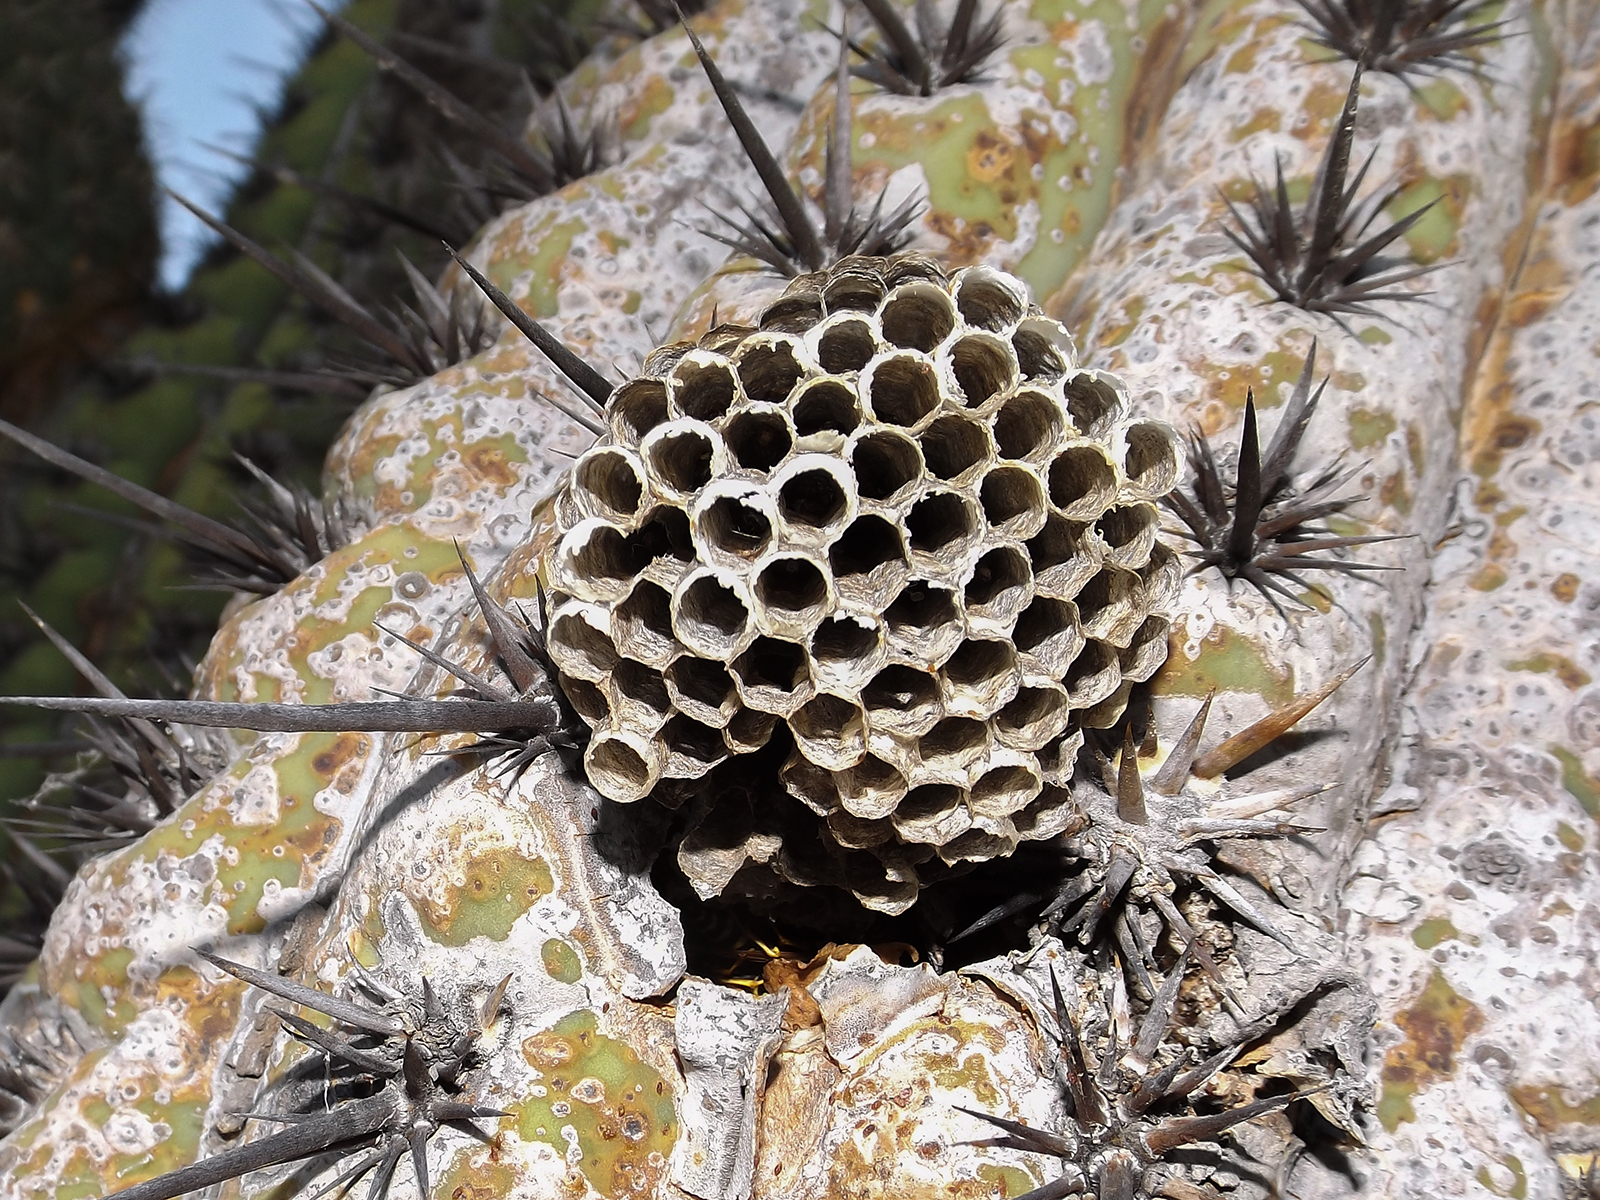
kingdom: Animalia
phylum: Arthropoda
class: Insecta
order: Hymenoptera
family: Eumenidae
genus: Polistes
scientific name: Polistes dominula
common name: Paper wasp
